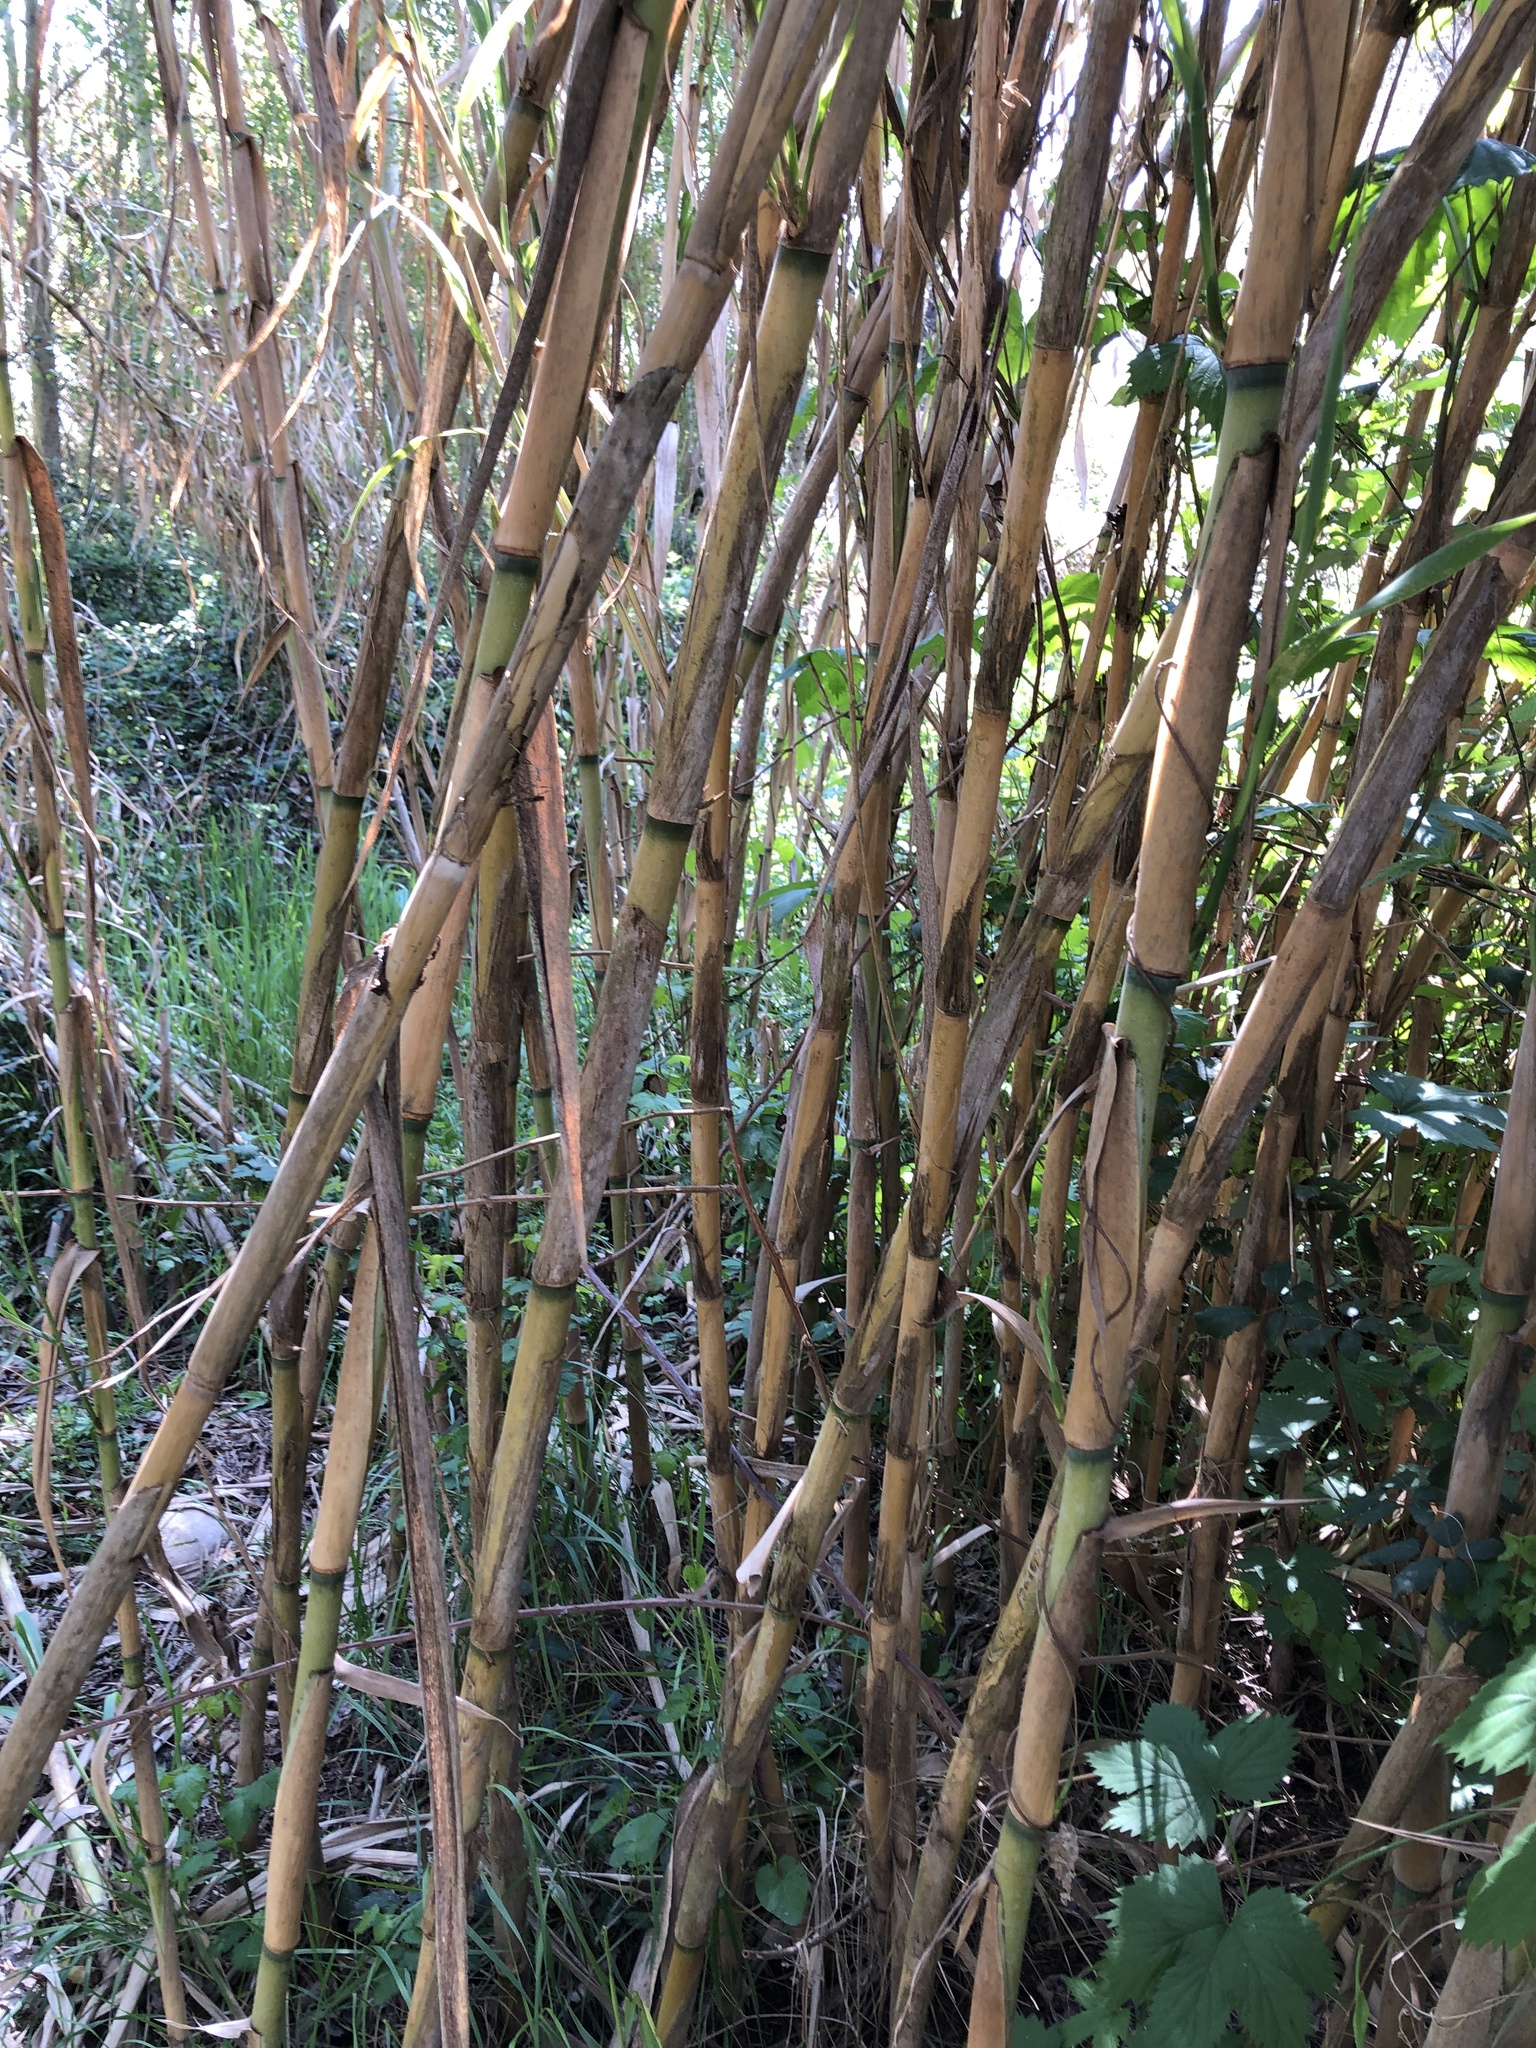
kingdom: Plantae
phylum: Tracheophyta
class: Liliopsida
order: Poales
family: Poaceae
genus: Arundo
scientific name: Arundo donax
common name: Giant reed
